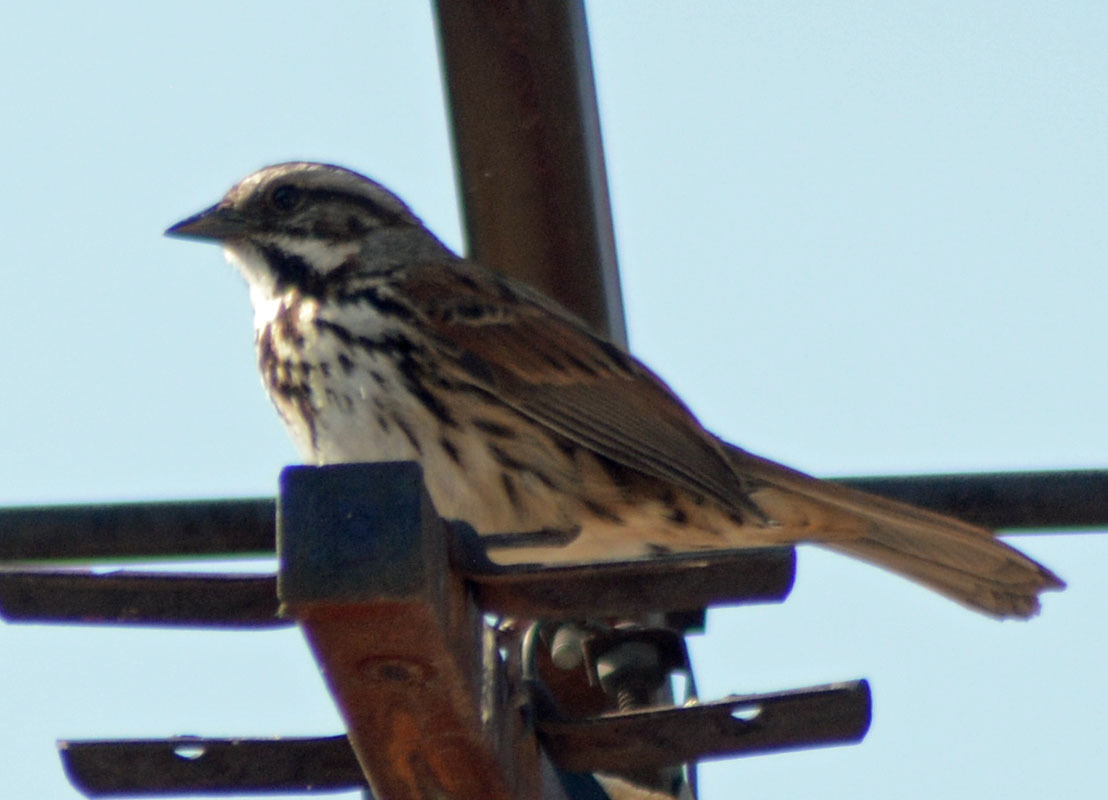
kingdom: Animalia
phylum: Chordata
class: Aves
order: Passeriformes
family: Passerellidae
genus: Melospiza
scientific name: Melospiza melodia
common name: Song sparrow
